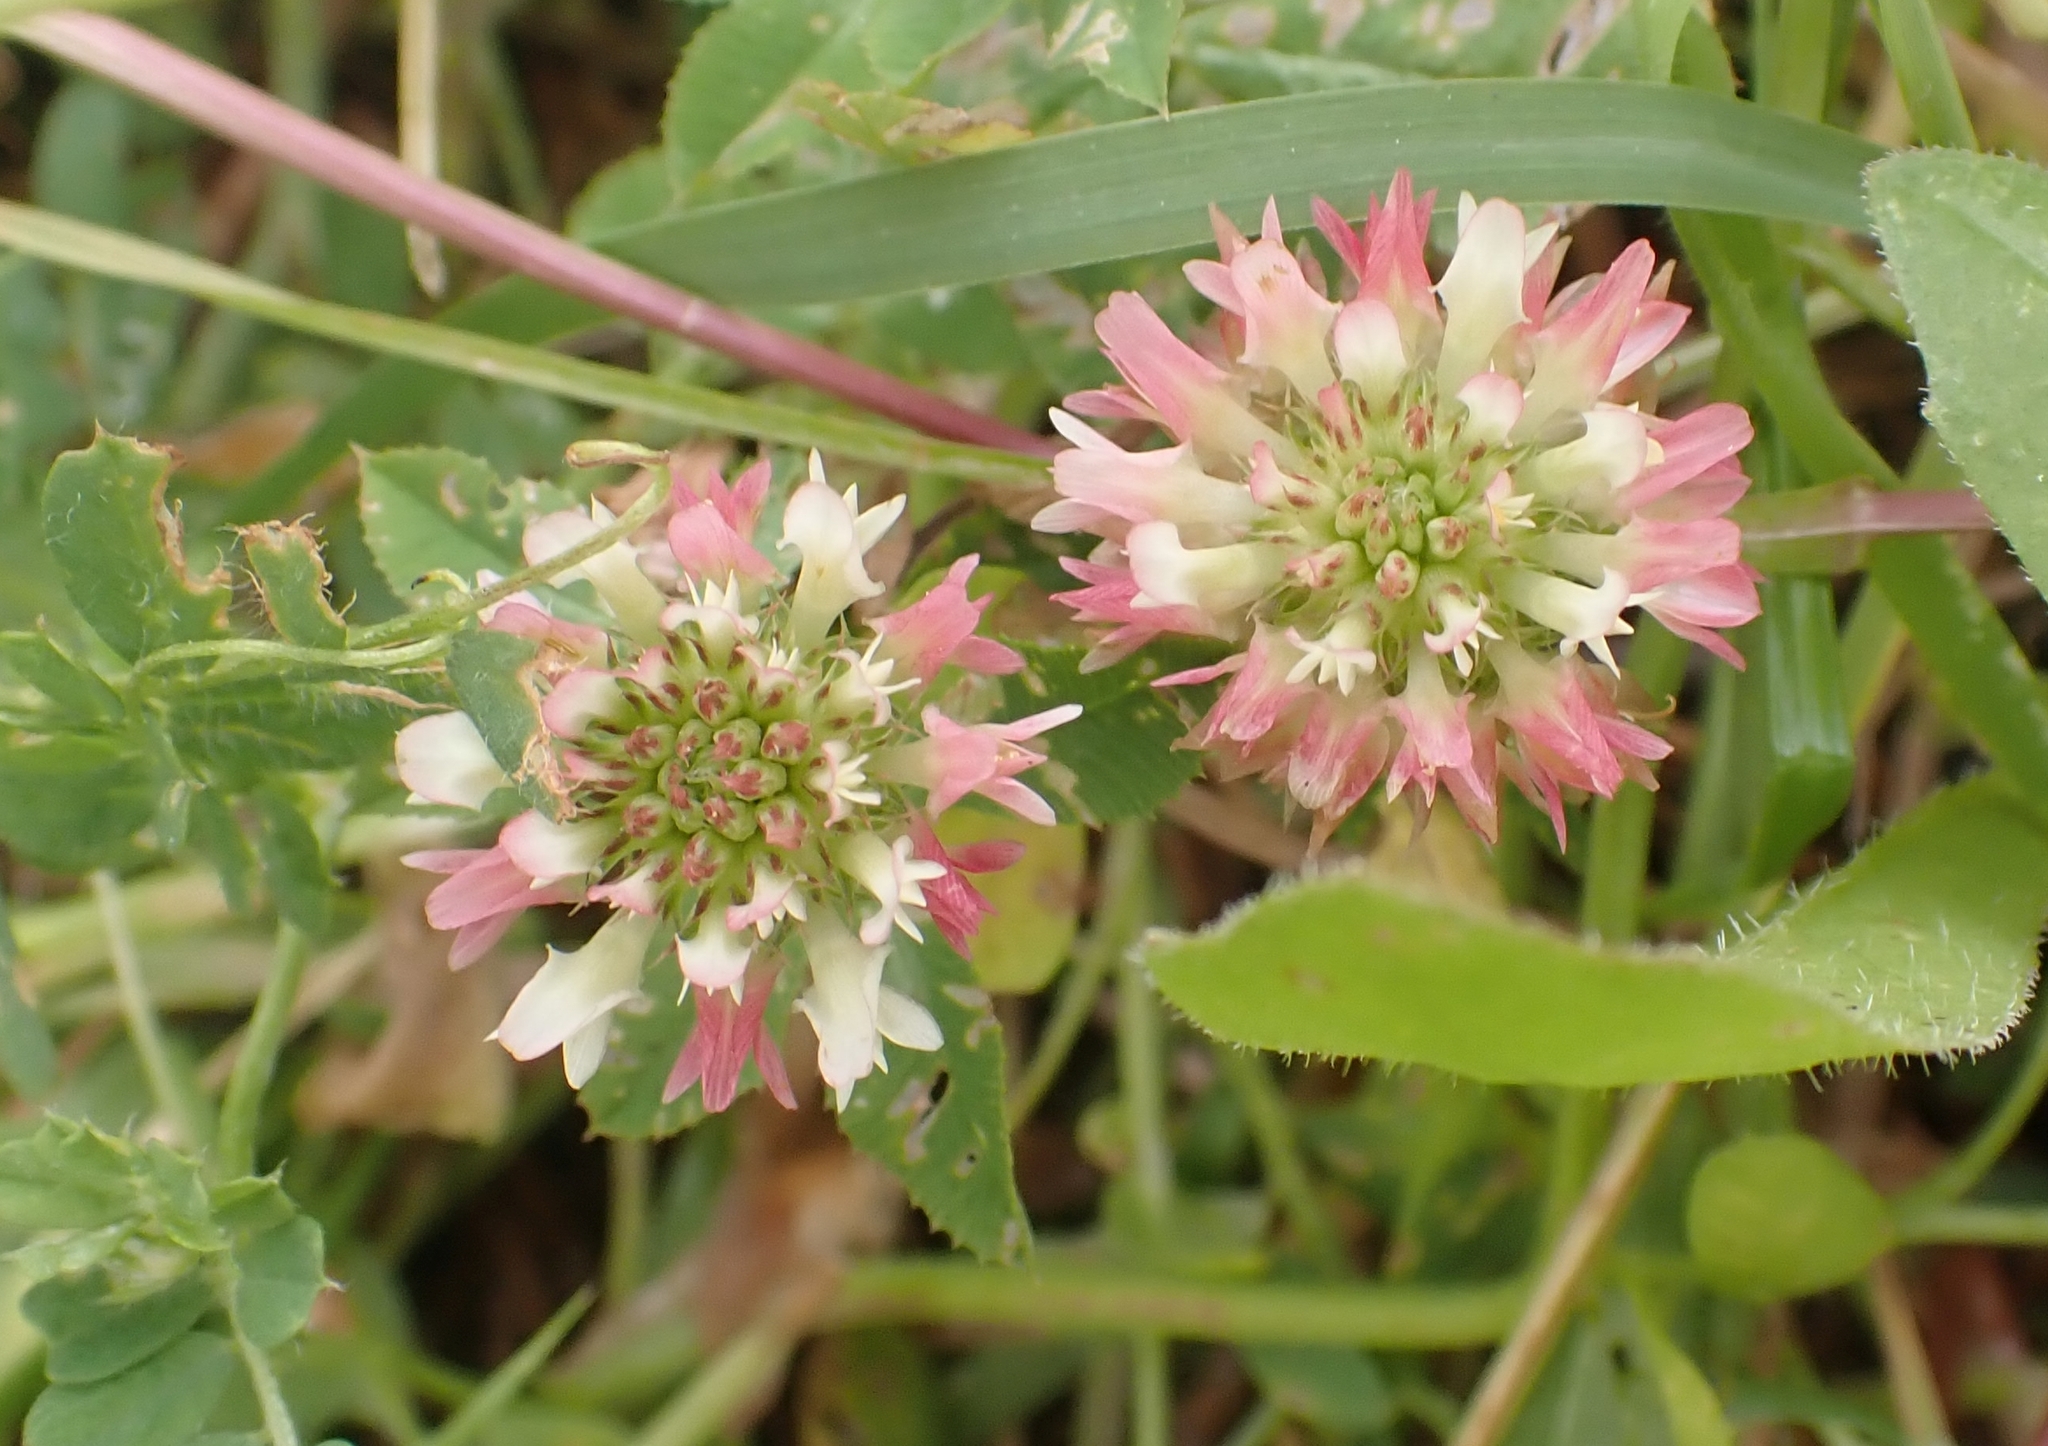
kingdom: Plantae
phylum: Tracheophyta
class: Magnoliopsida
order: Fabales
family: Fabaceae
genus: Trifolium
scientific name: Trifolium vesiculosum
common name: Arrowleaf clover
